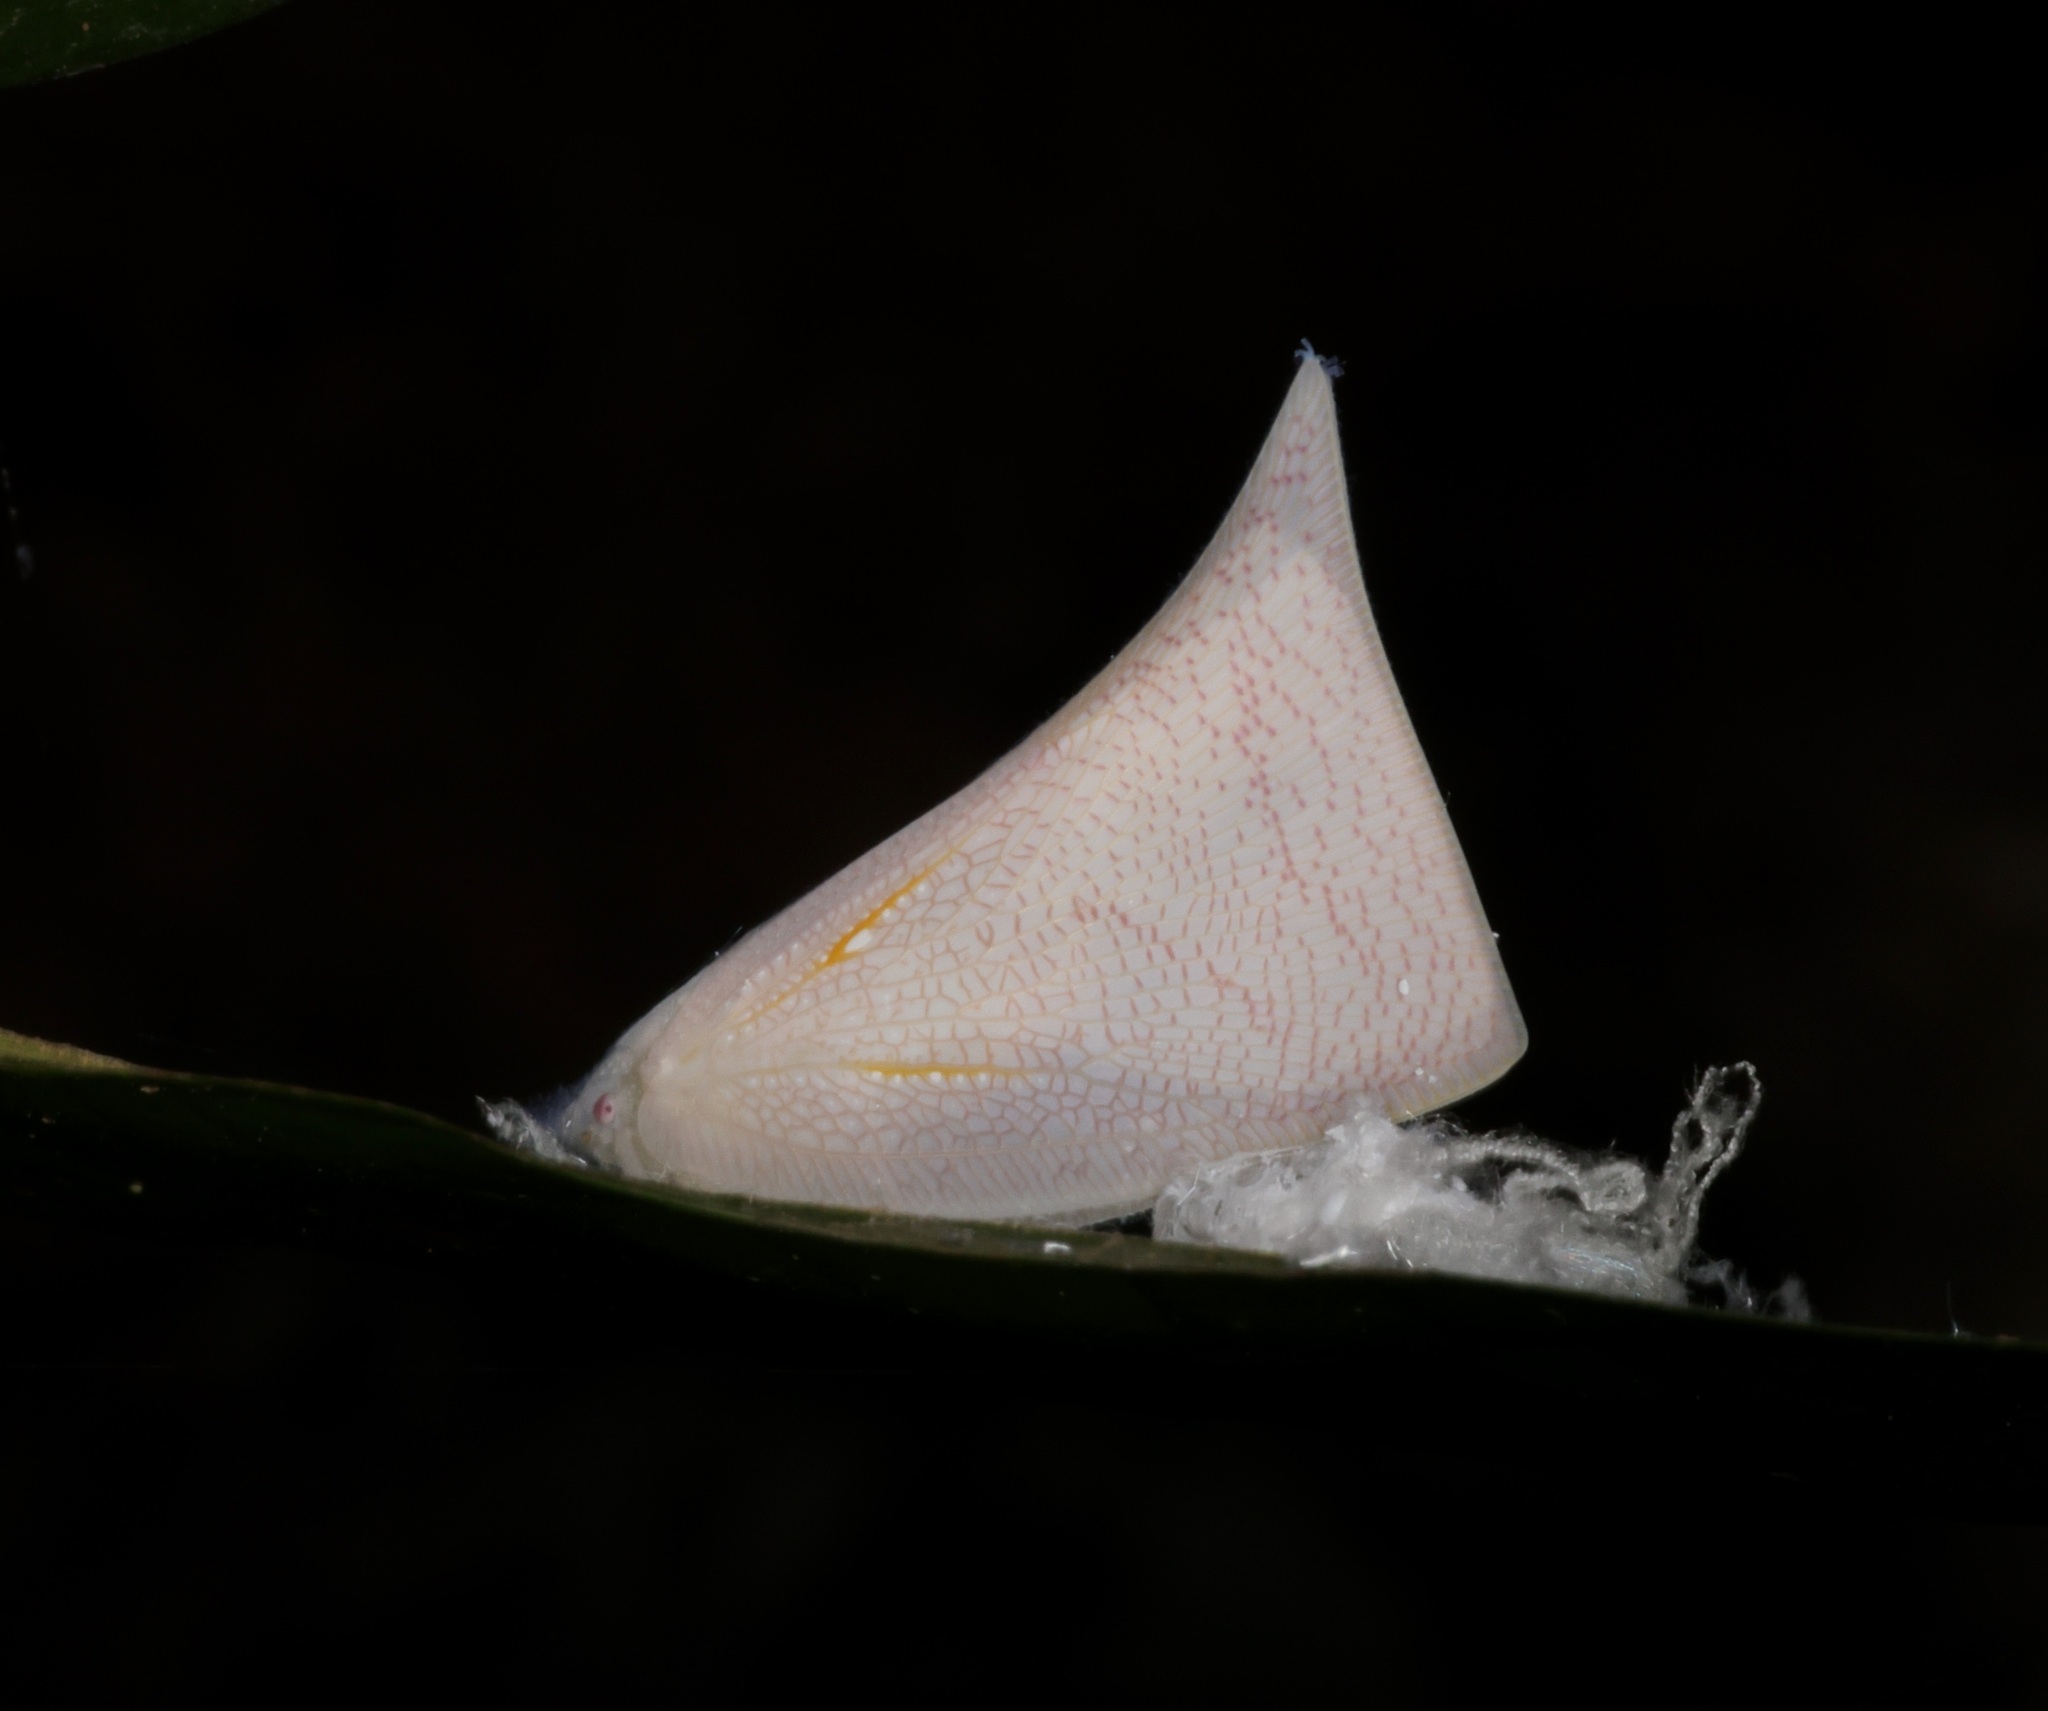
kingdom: Animalia
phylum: Arthropoda
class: Insecta
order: Hemiptera
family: Flatidae
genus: Lawana
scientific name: Lawana imitata
